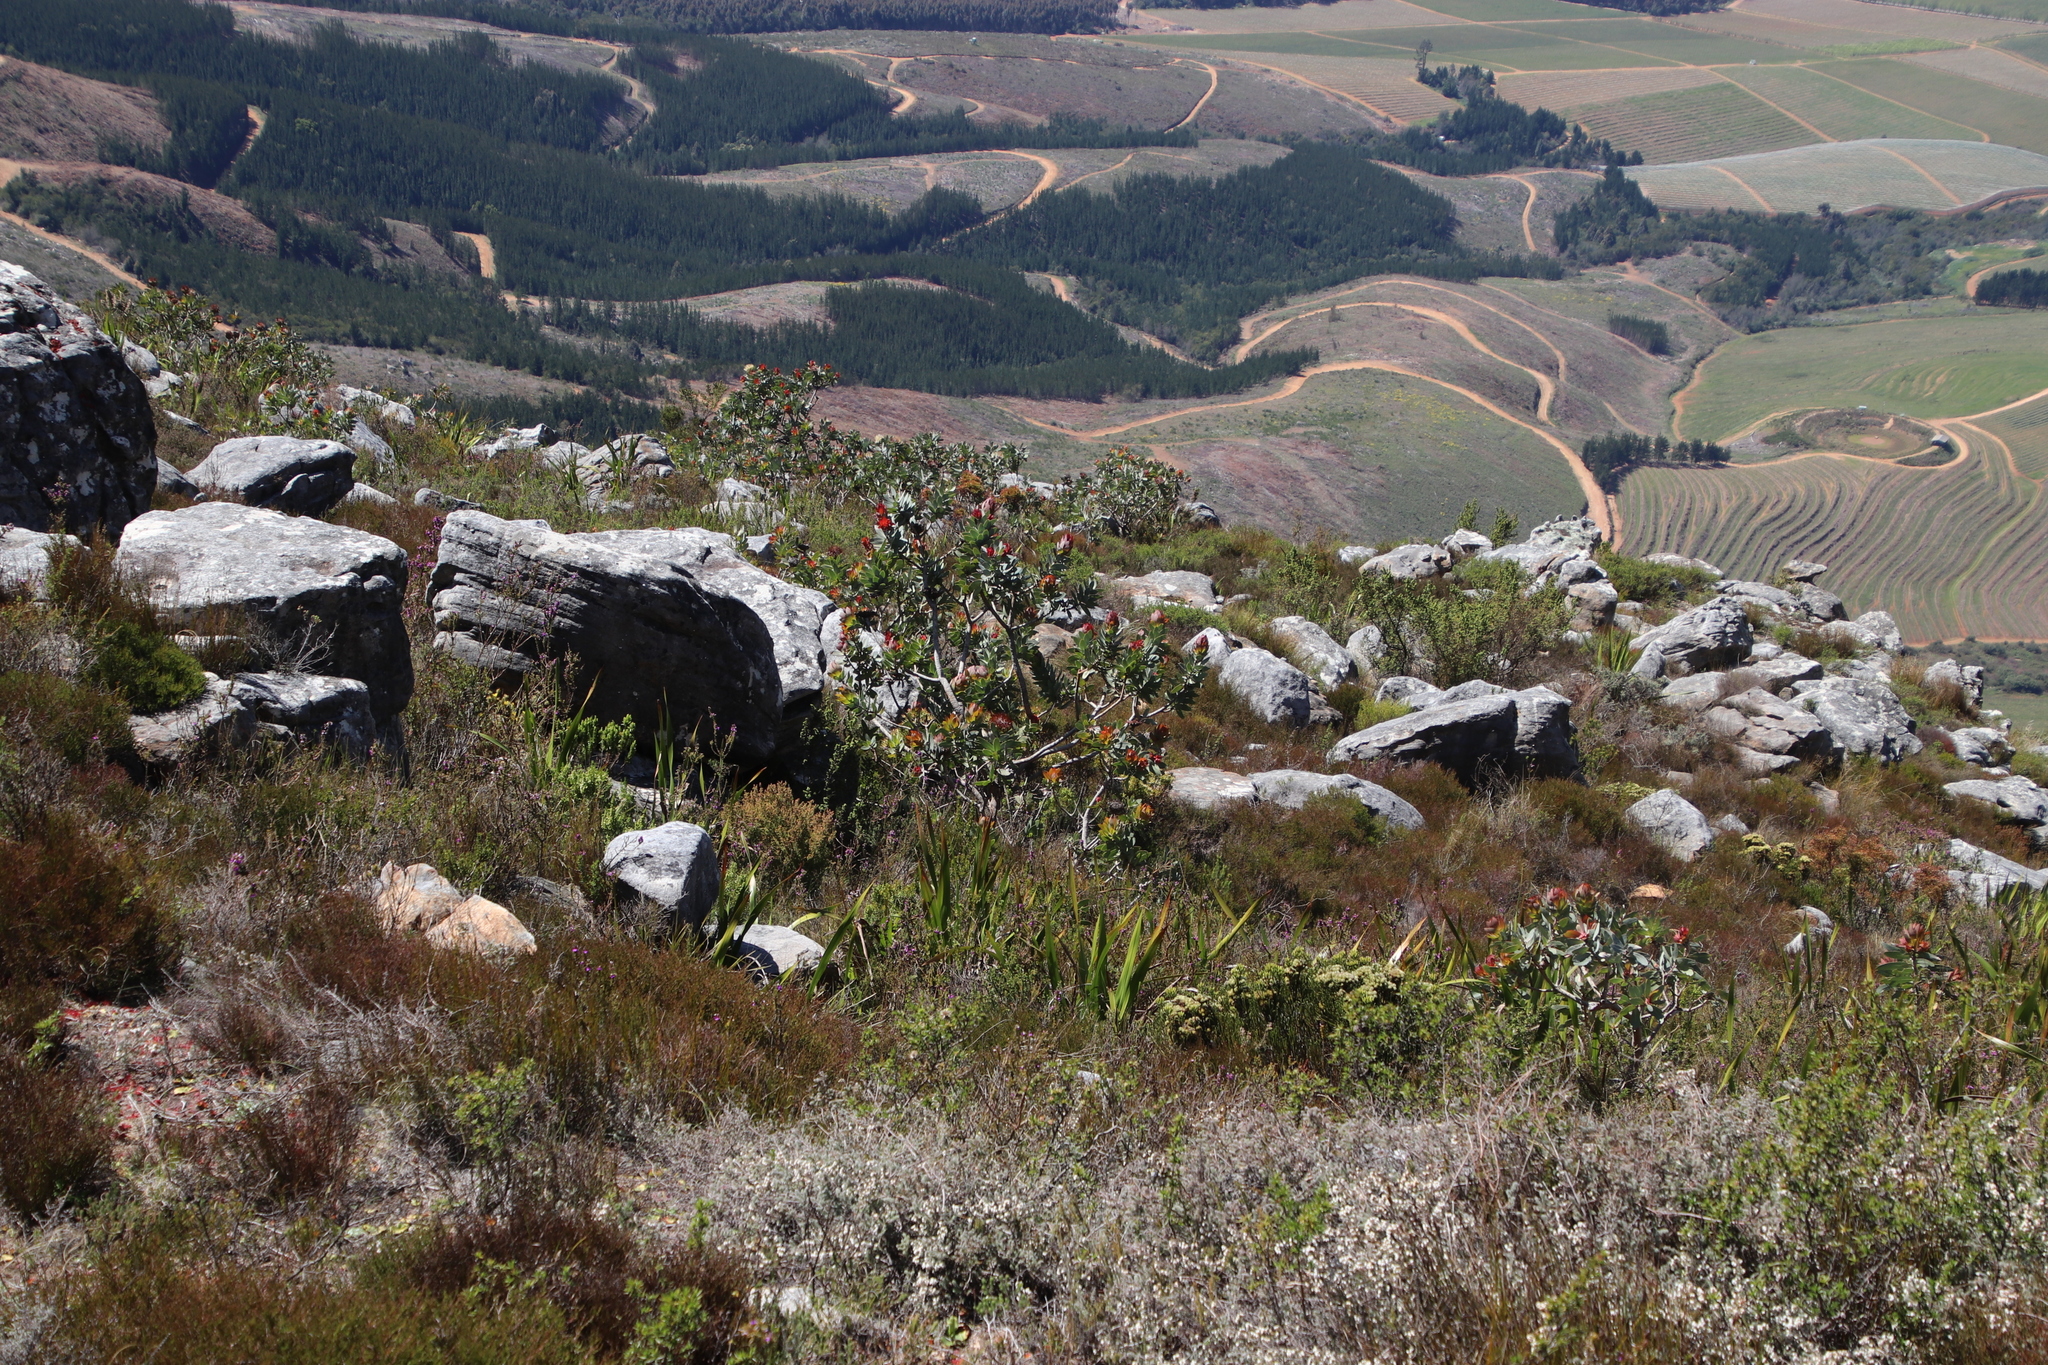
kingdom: Plantae
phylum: Tracheophyta
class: Magnoliopsida
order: Proteales
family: Proteaceae
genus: Protea
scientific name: Protea nitida
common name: Tree protea
